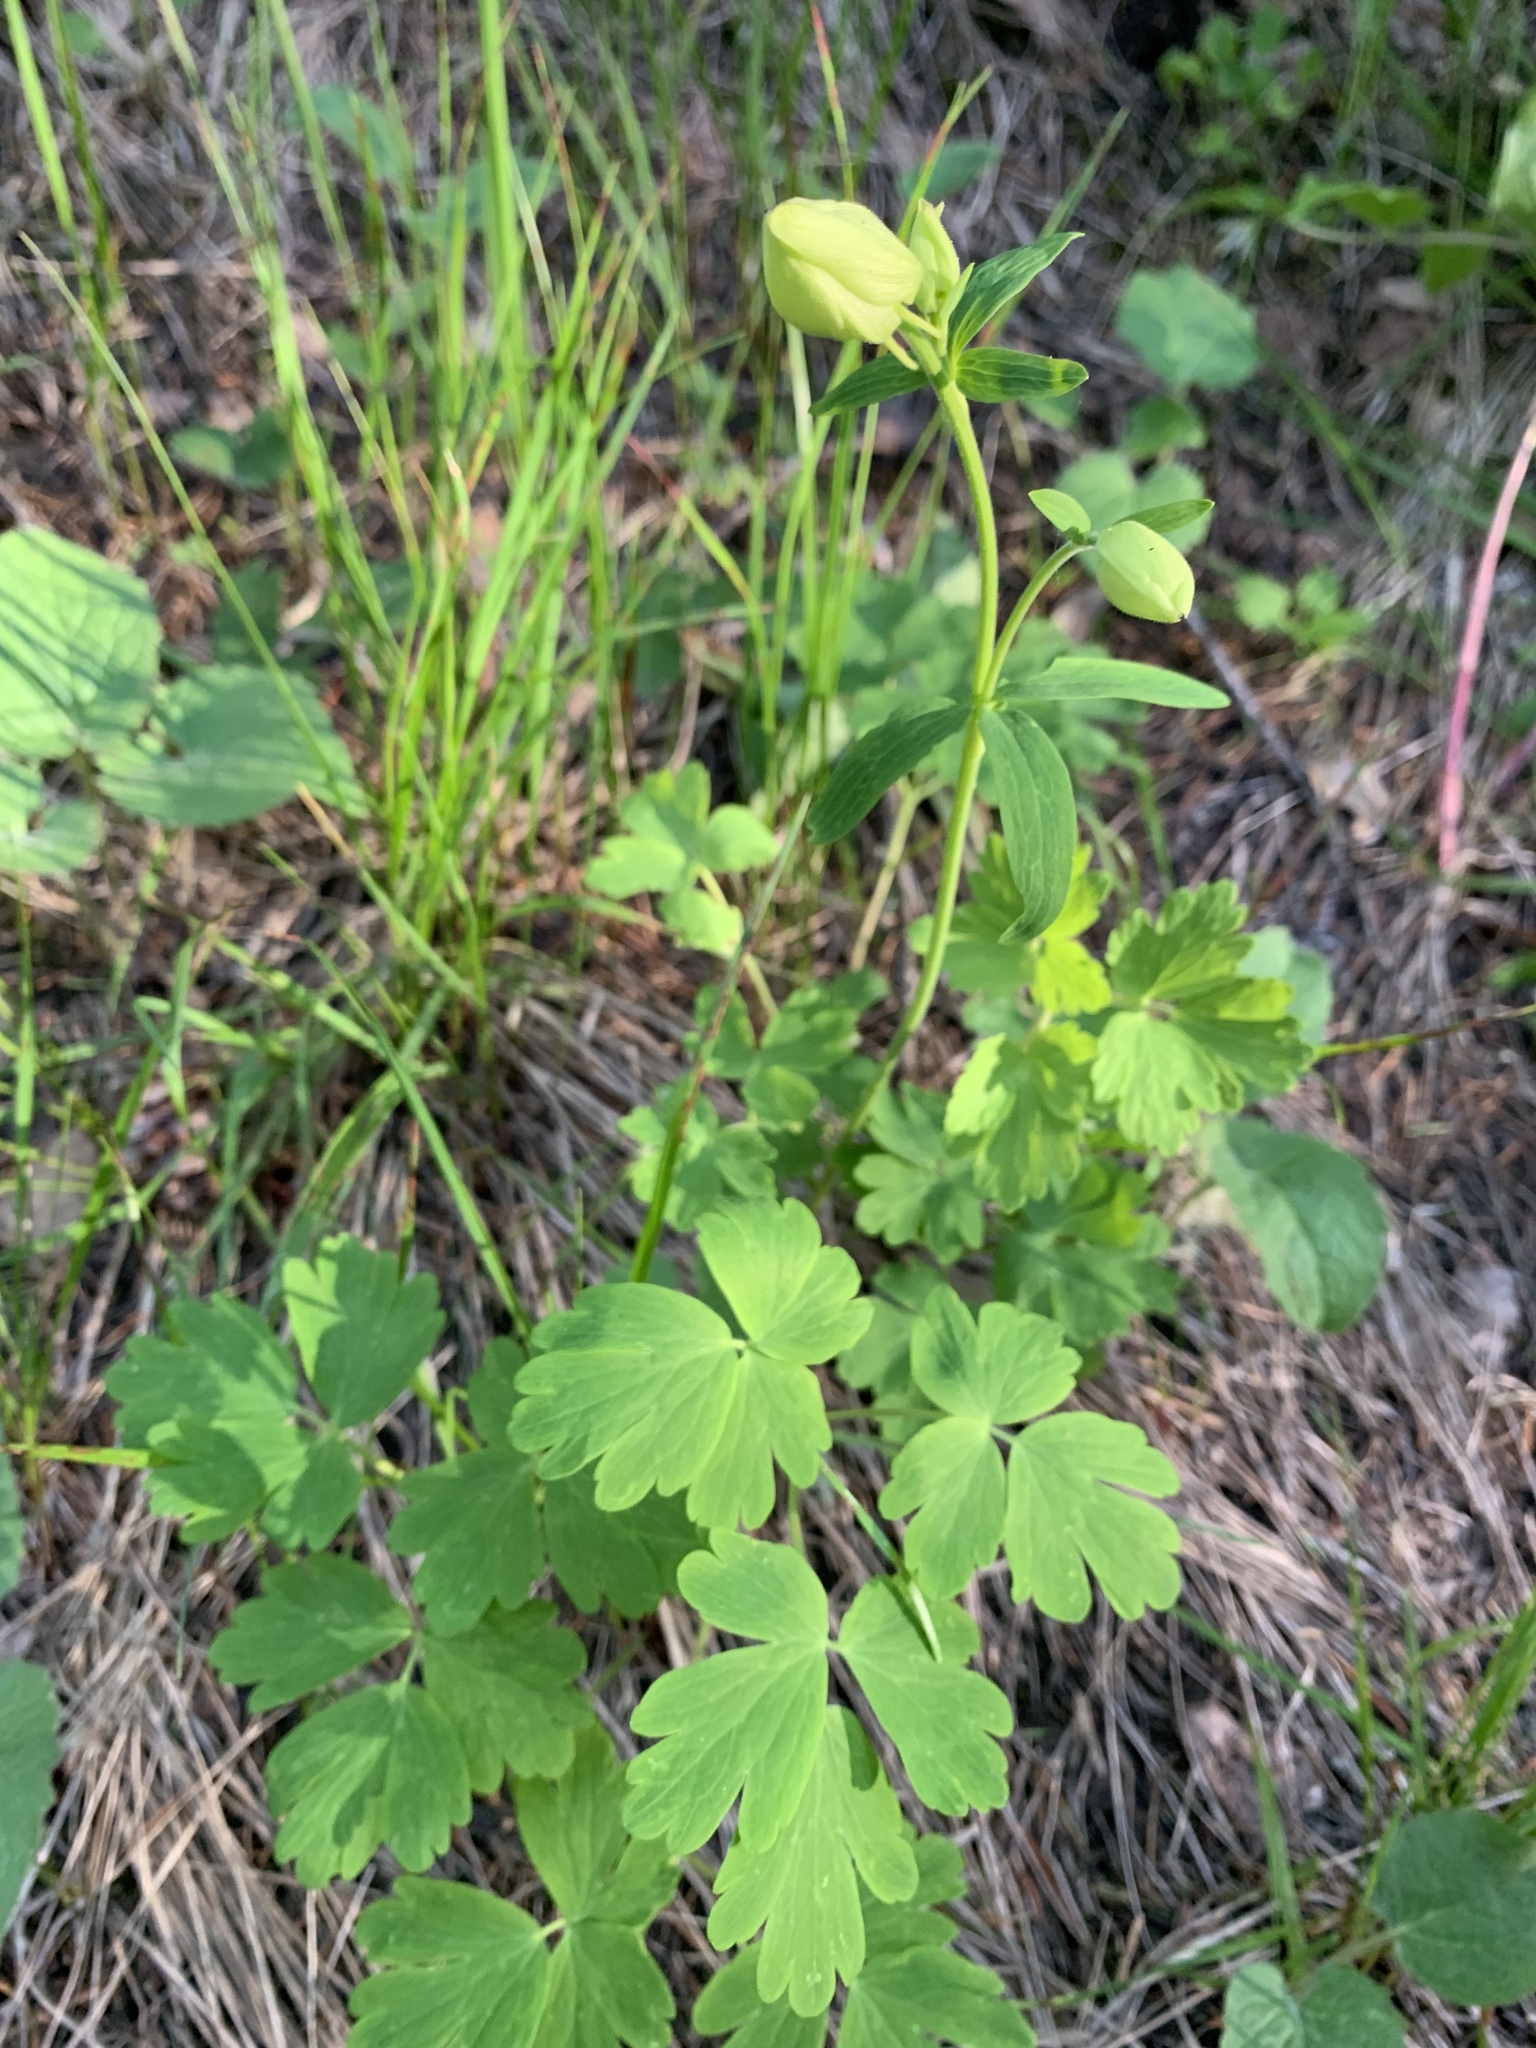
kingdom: Plantae
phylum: Tracheophyta
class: Magnoliopsida
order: Ranunculales
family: Ranunculaceae
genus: Aquilegia
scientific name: Aquilegia coerulea
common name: Rocky mountain columbine
